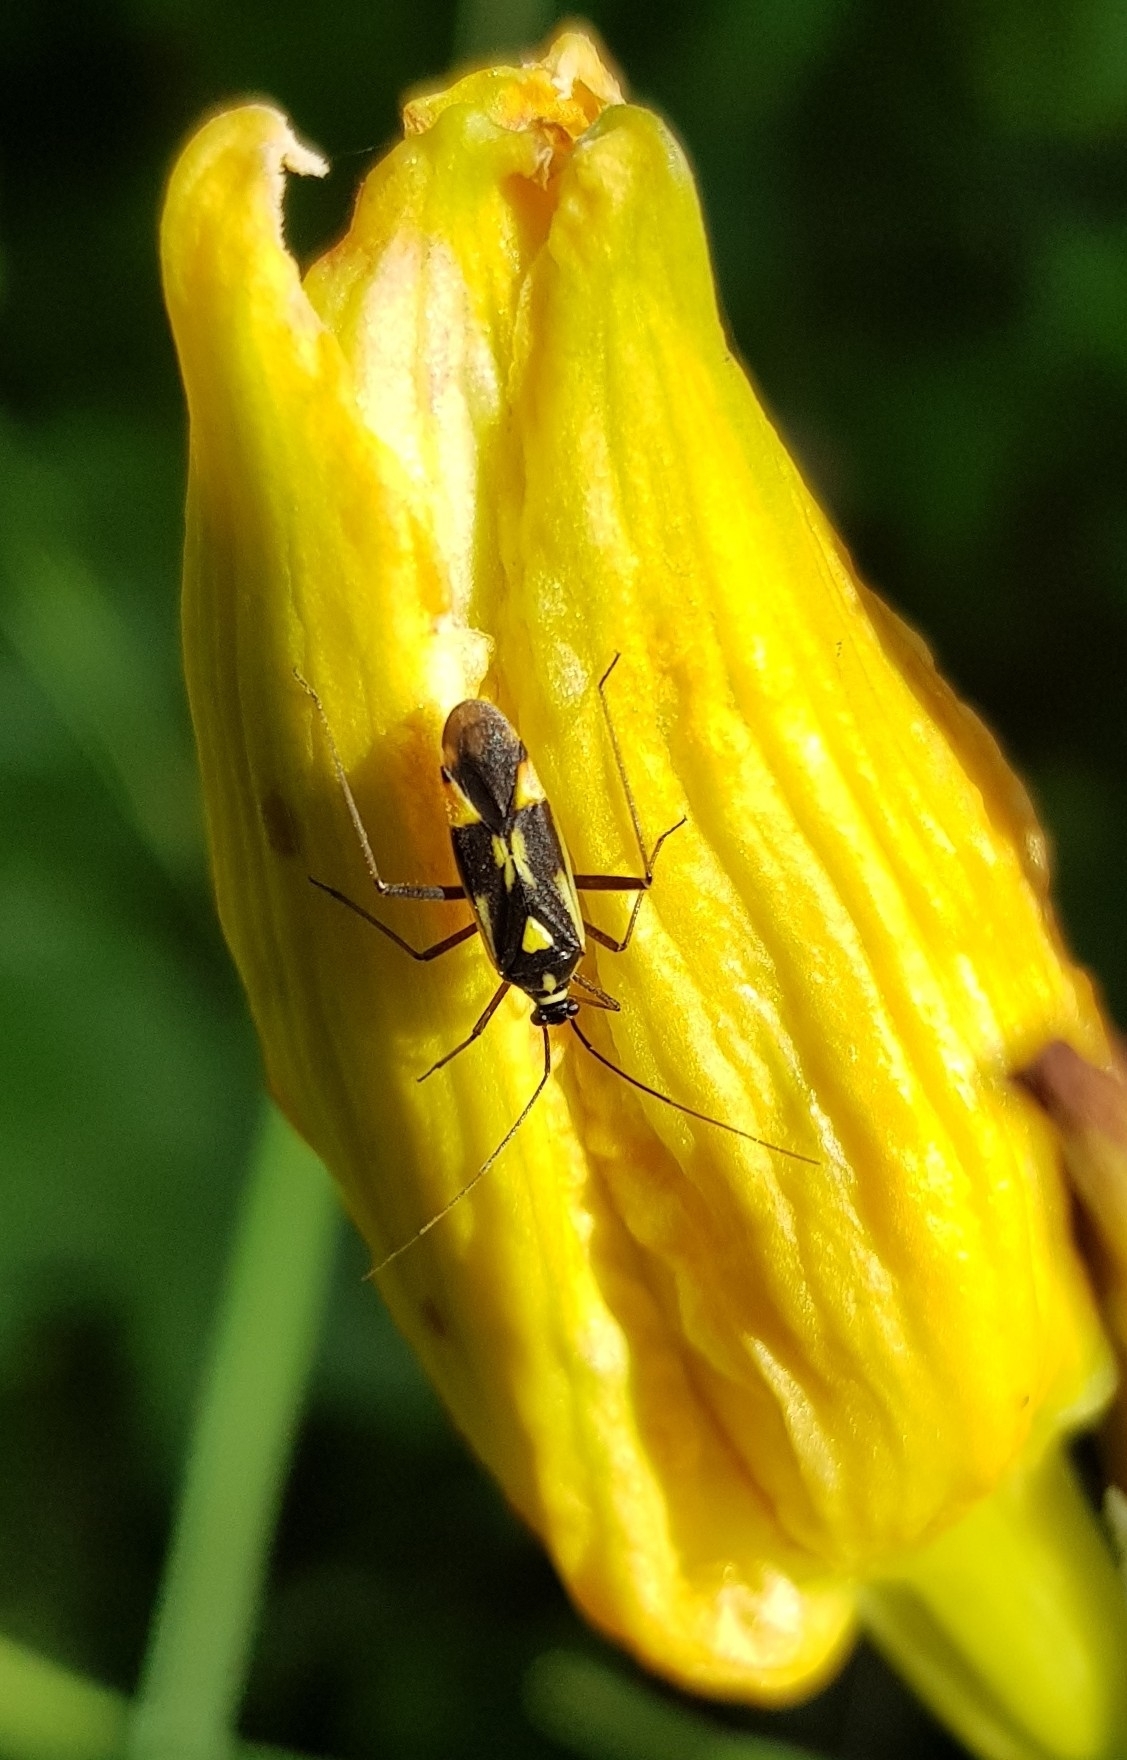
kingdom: Animalia
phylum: Arthropoda
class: Insecta
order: Hemiptera
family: Miridae
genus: Grypocoris
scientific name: Grypocoris stysi
